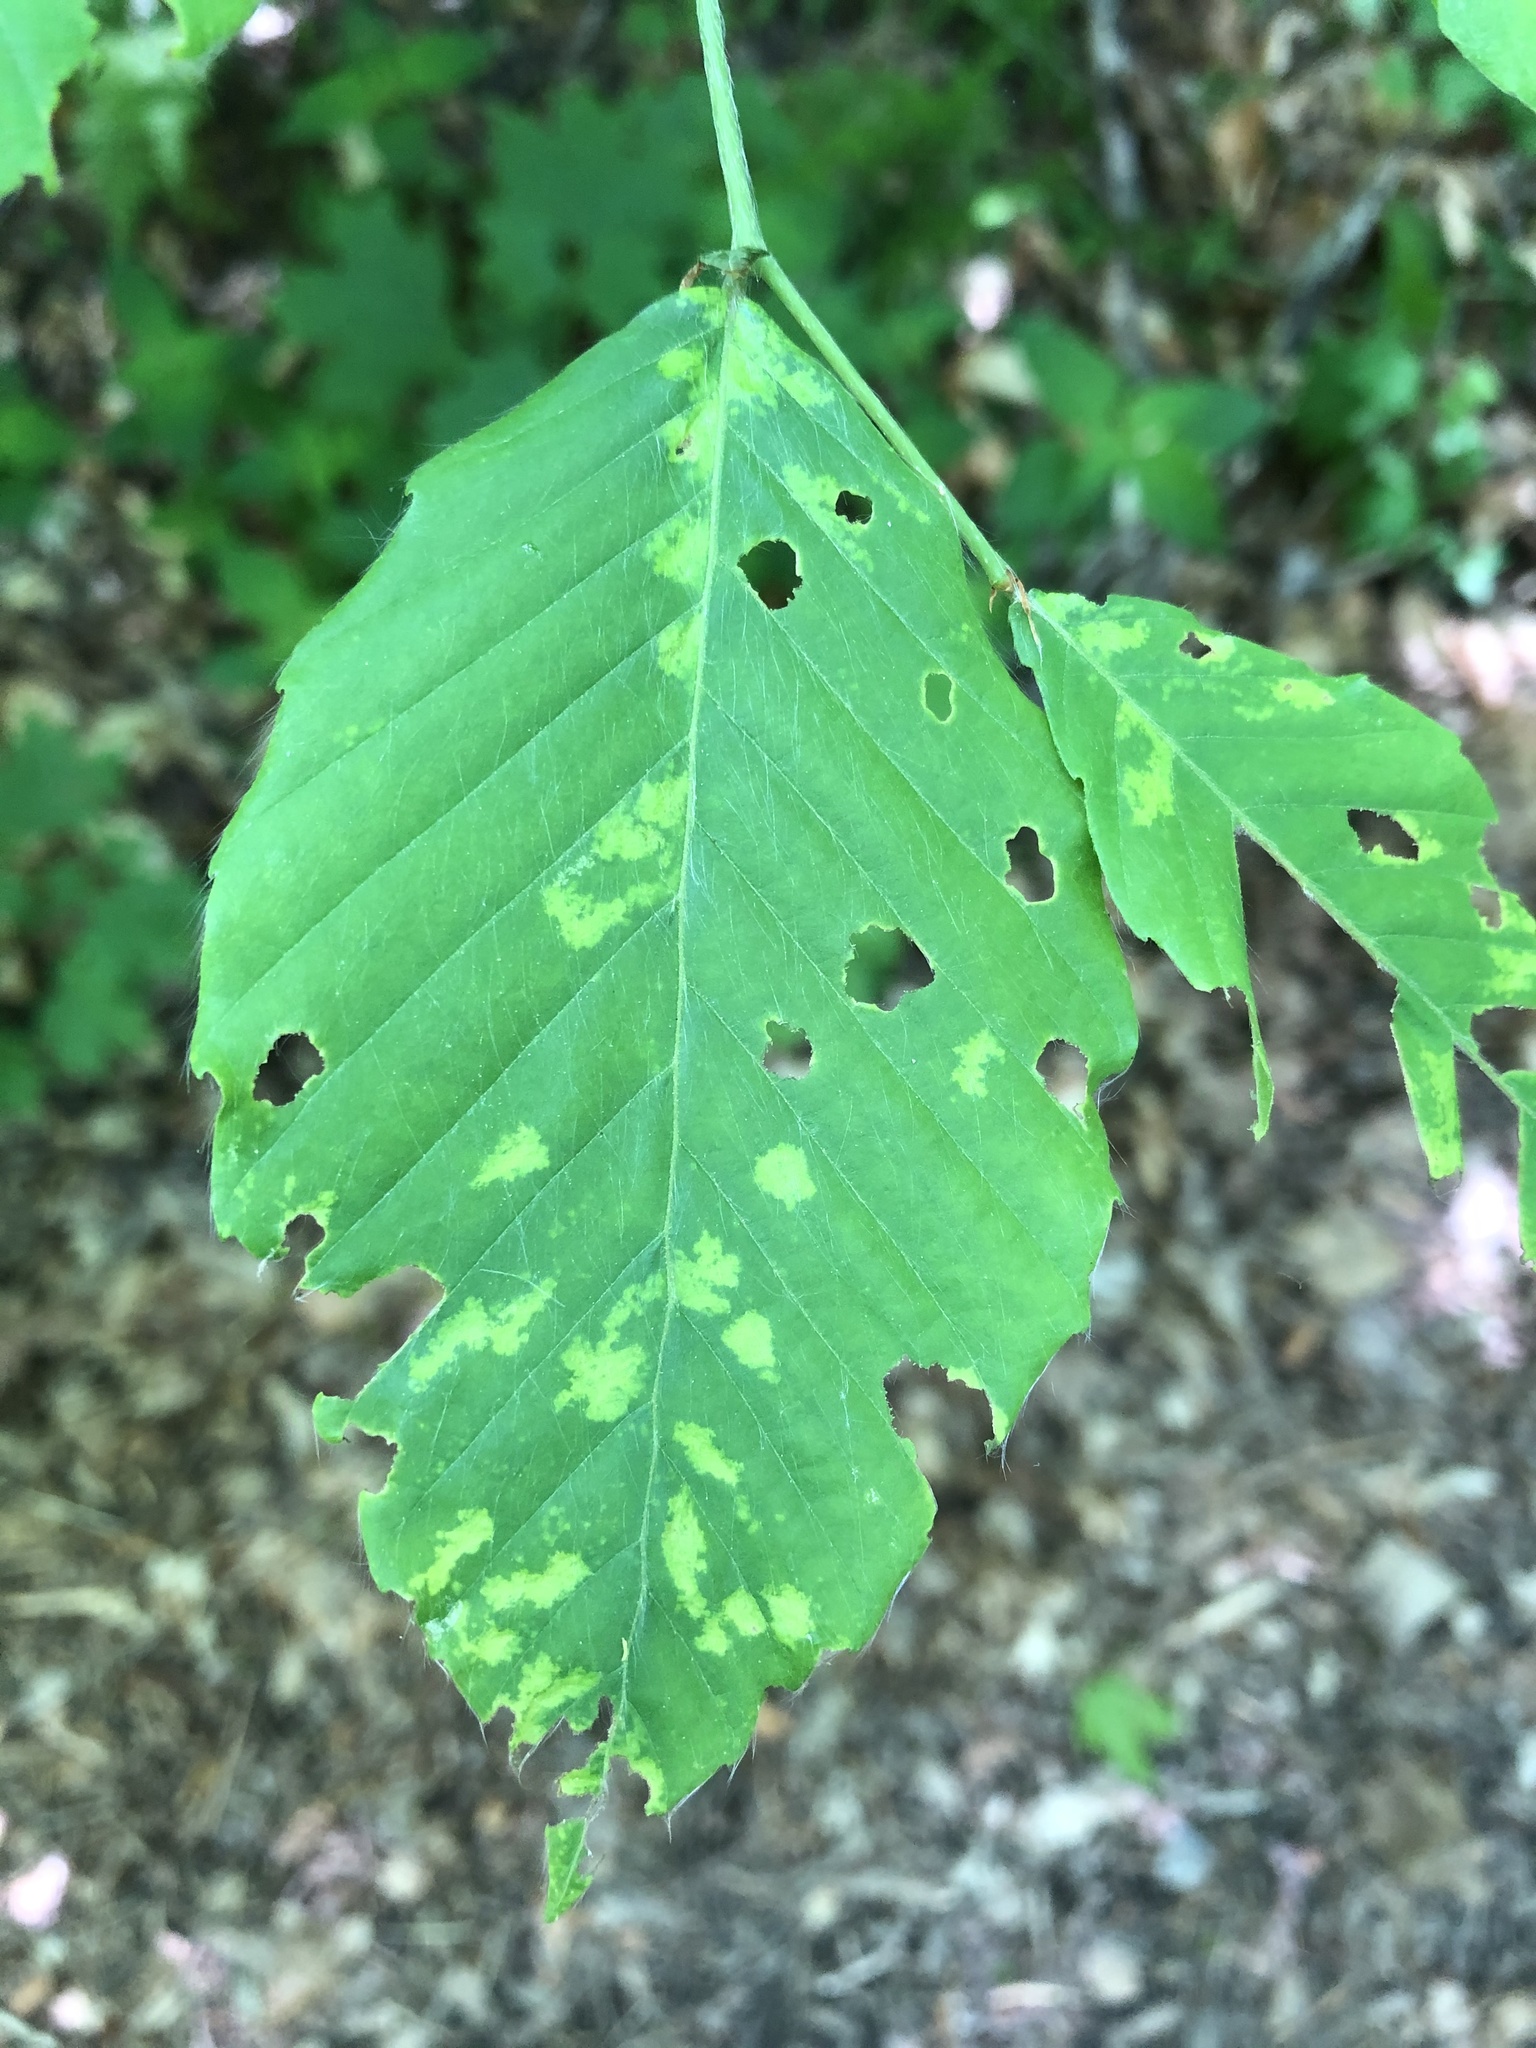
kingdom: Animalia
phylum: Arthropoda
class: Arachnida
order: Trombidiformes
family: Eriophyidae
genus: Acalitus
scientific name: Acalitus
